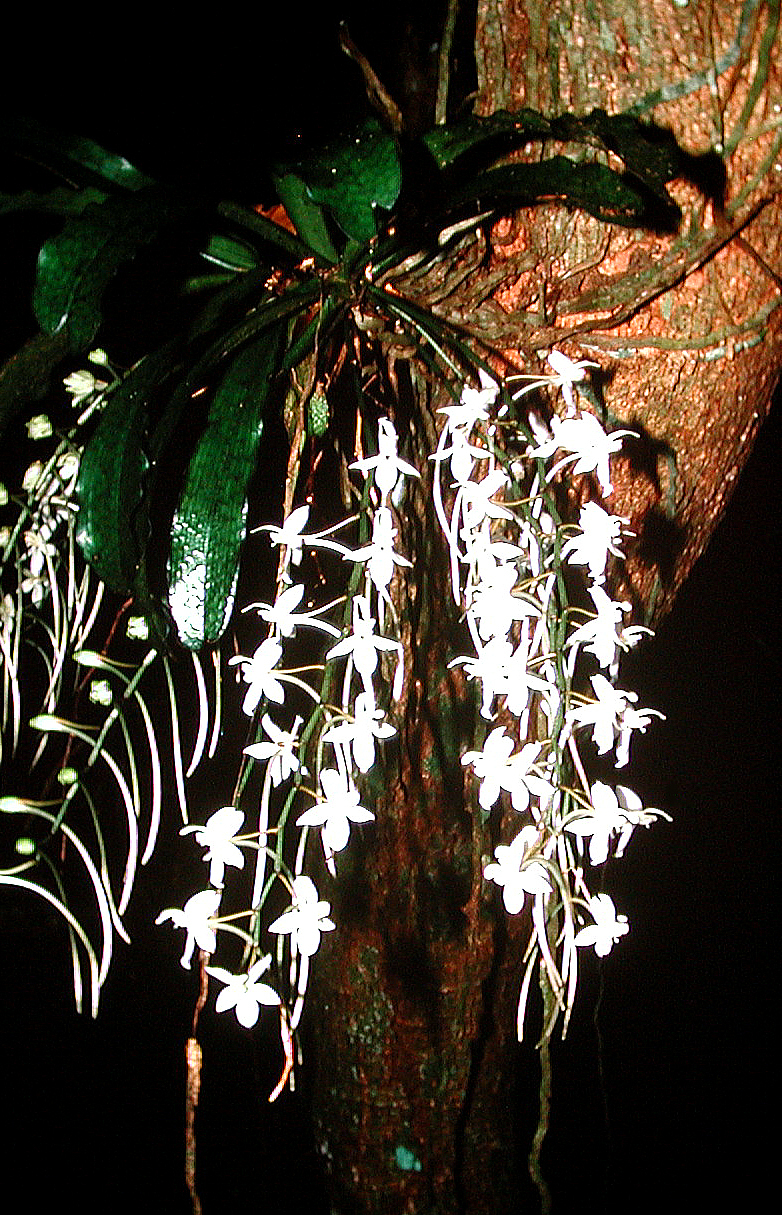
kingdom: Plantae
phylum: Tracheophyta
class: Liliopsida
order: Asparagales
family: Orchidaceae
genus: Aerangis
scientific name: Aerangis mystacidii
